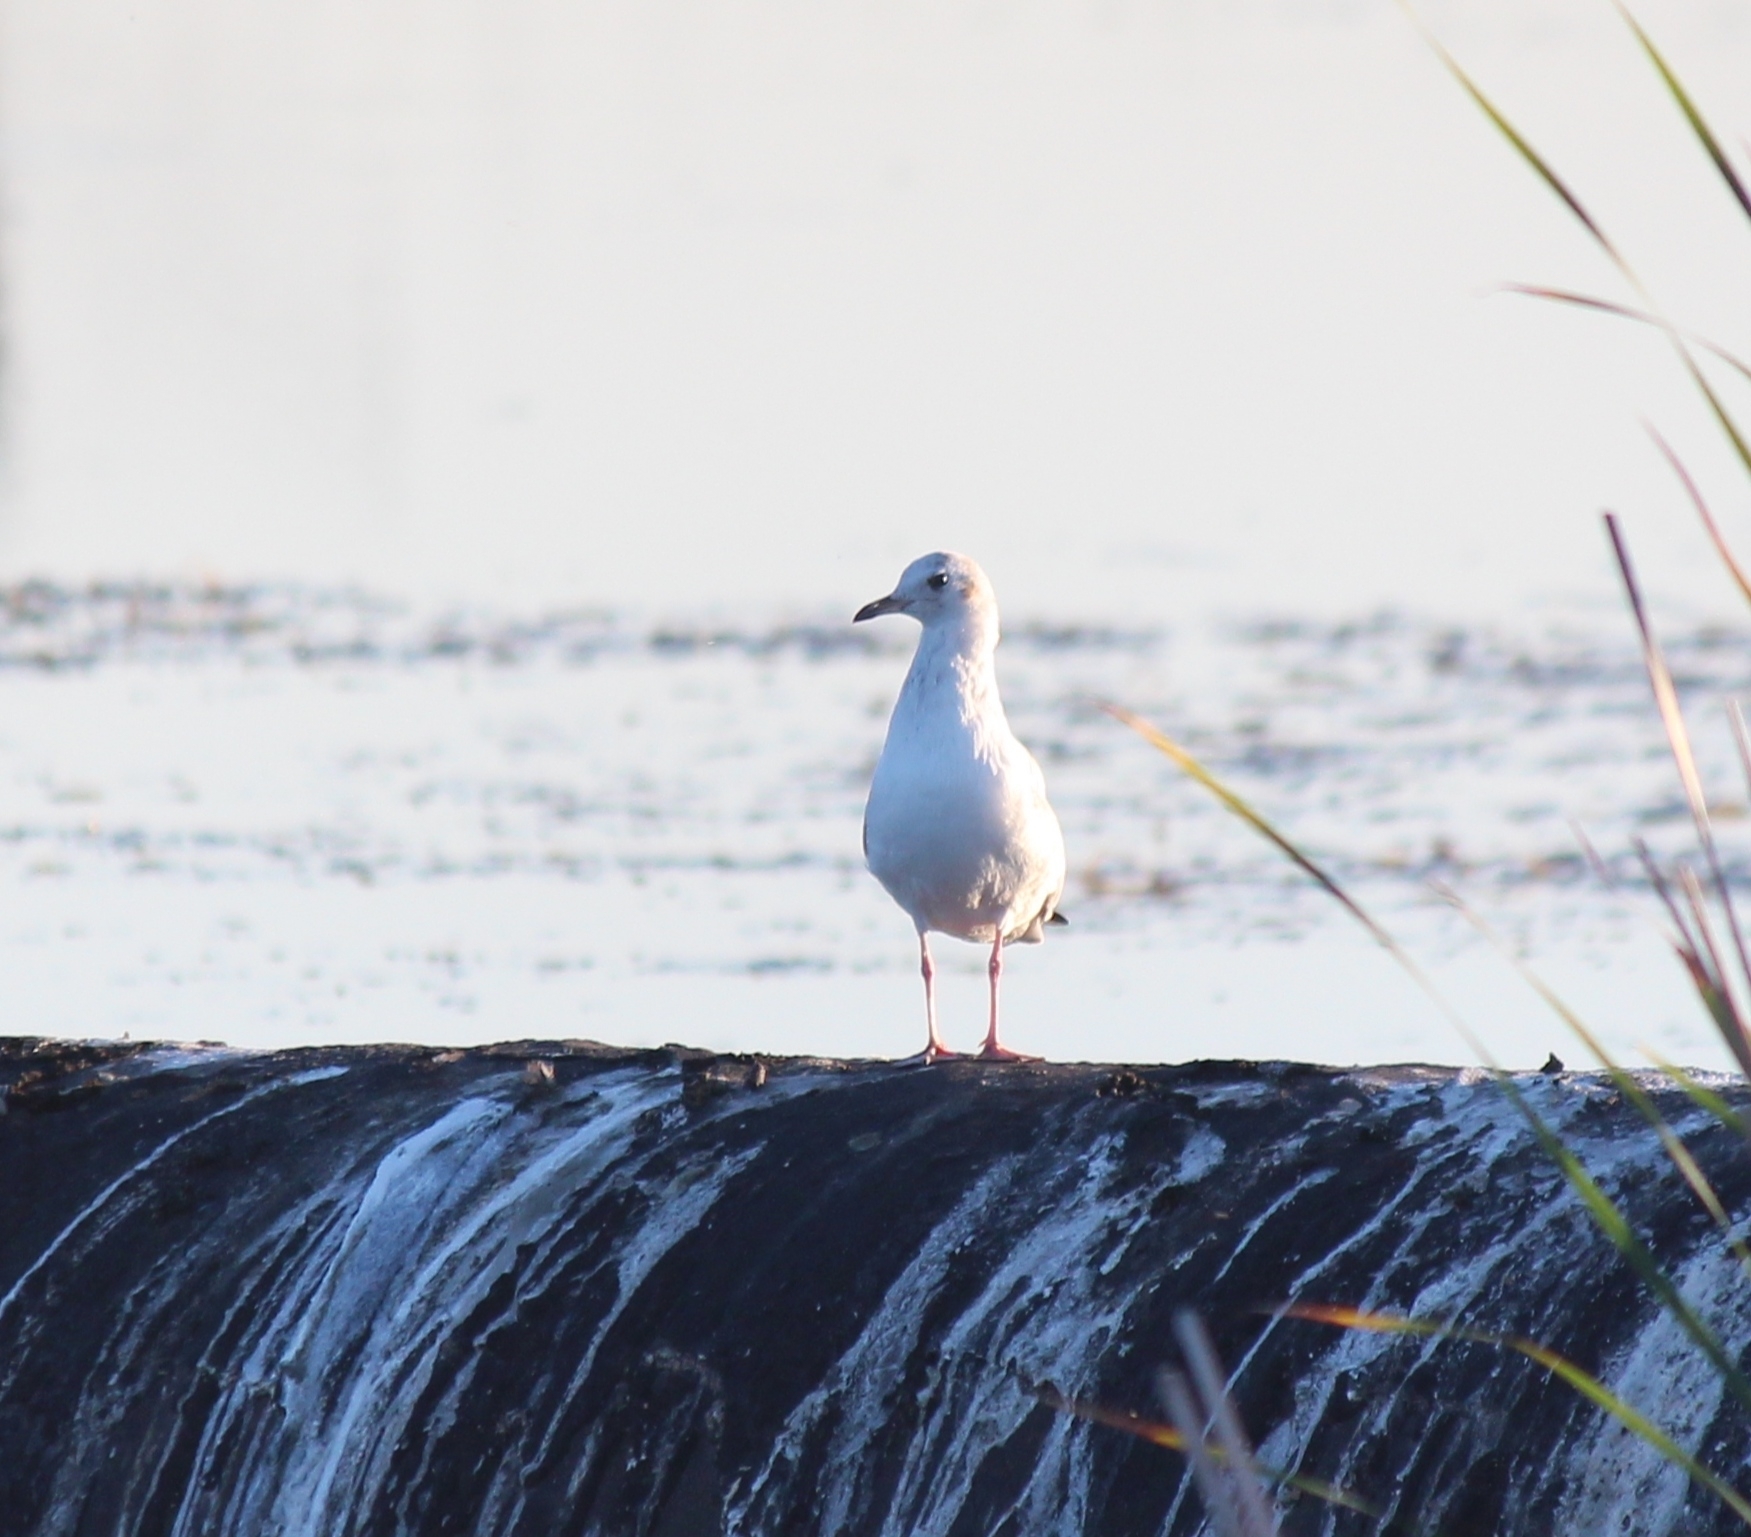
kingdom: Animalia
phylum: Chordata
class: Aves
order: Charadriiformes
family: Laridae
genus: Chroicocephalus
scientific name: Chroicocephalus ridibundus
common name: Black-headed gull
